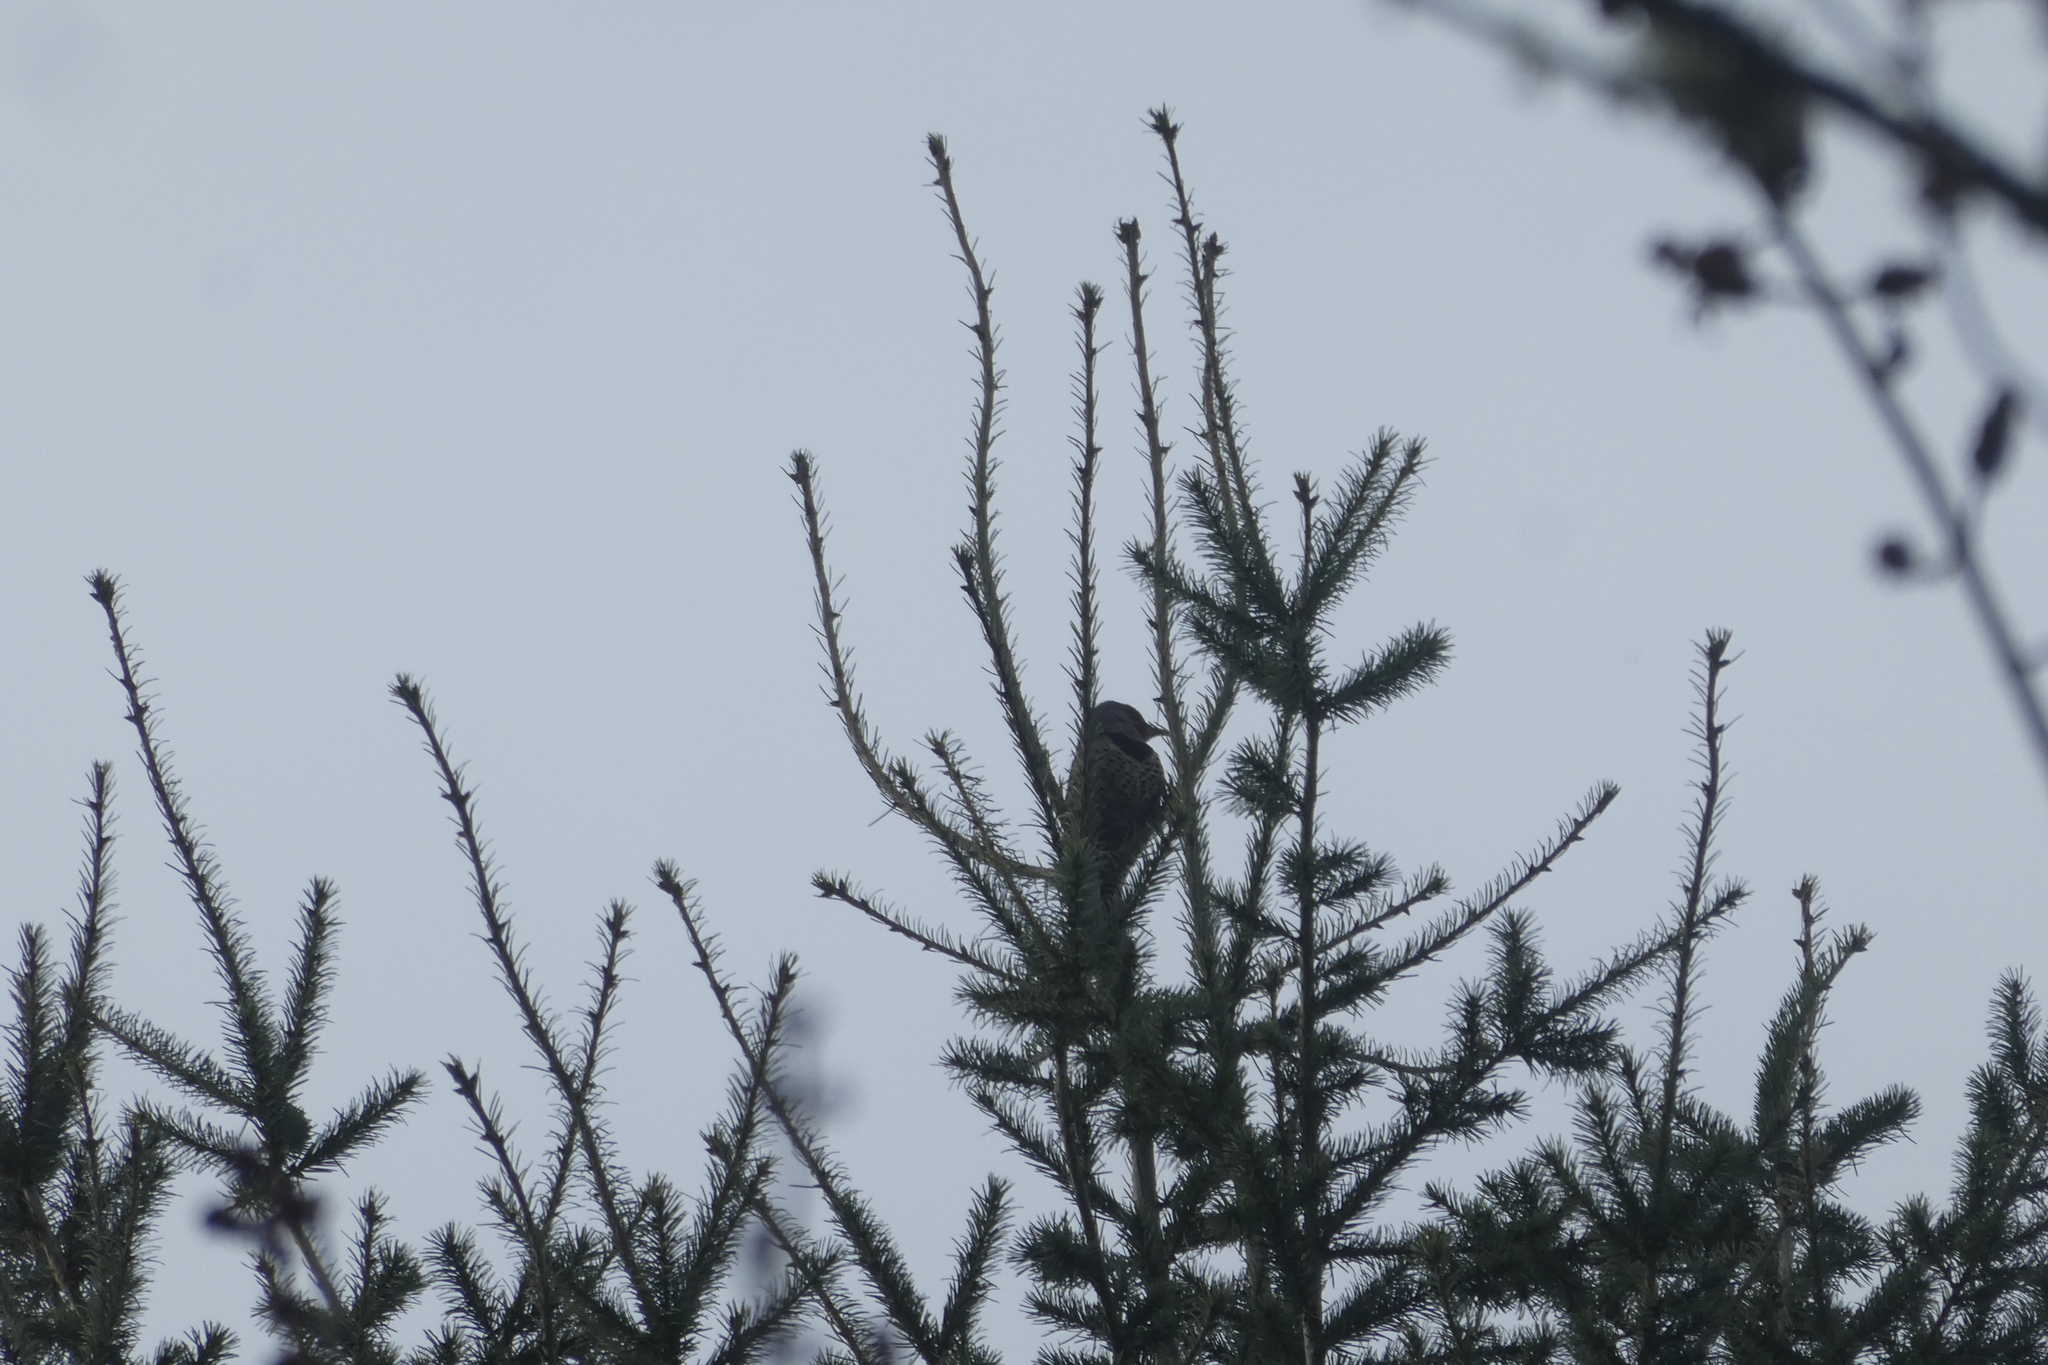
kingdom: Animalia
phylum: Chordata
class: Aves
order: Piciformes
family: Picidae
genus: Colaptes
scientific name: Colaptes auratus
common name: Northern flicker
